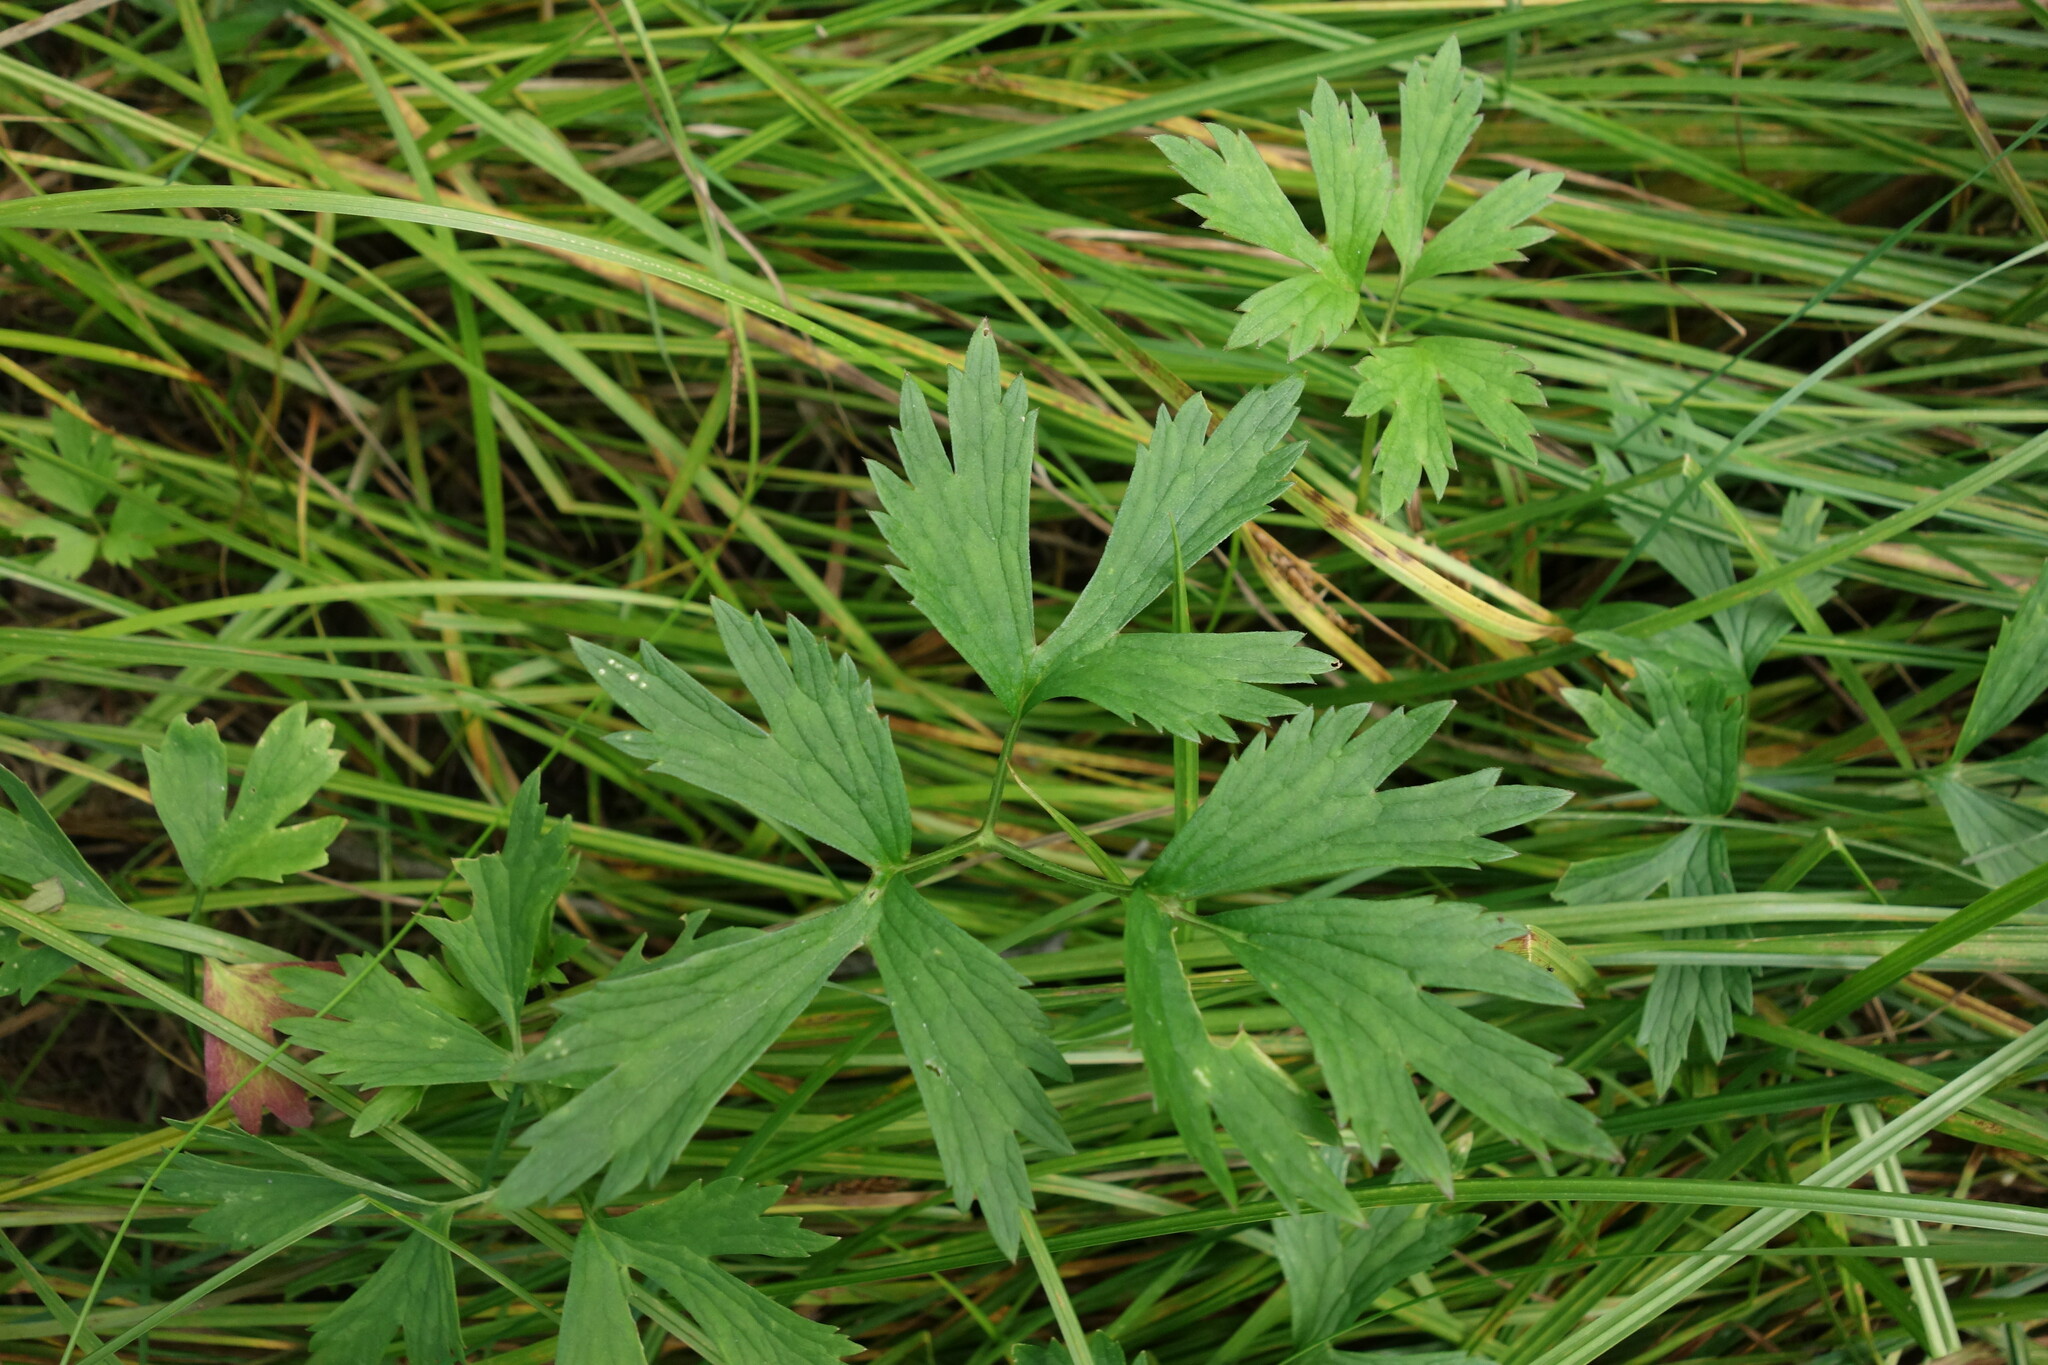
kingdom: Plantae
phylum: Tracheophyta
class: Magnoliopsida
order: Ranunculales
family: Ranunculaceae
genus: Ranunculus
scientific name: Ranunculus repens
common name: Creeping buttercup
